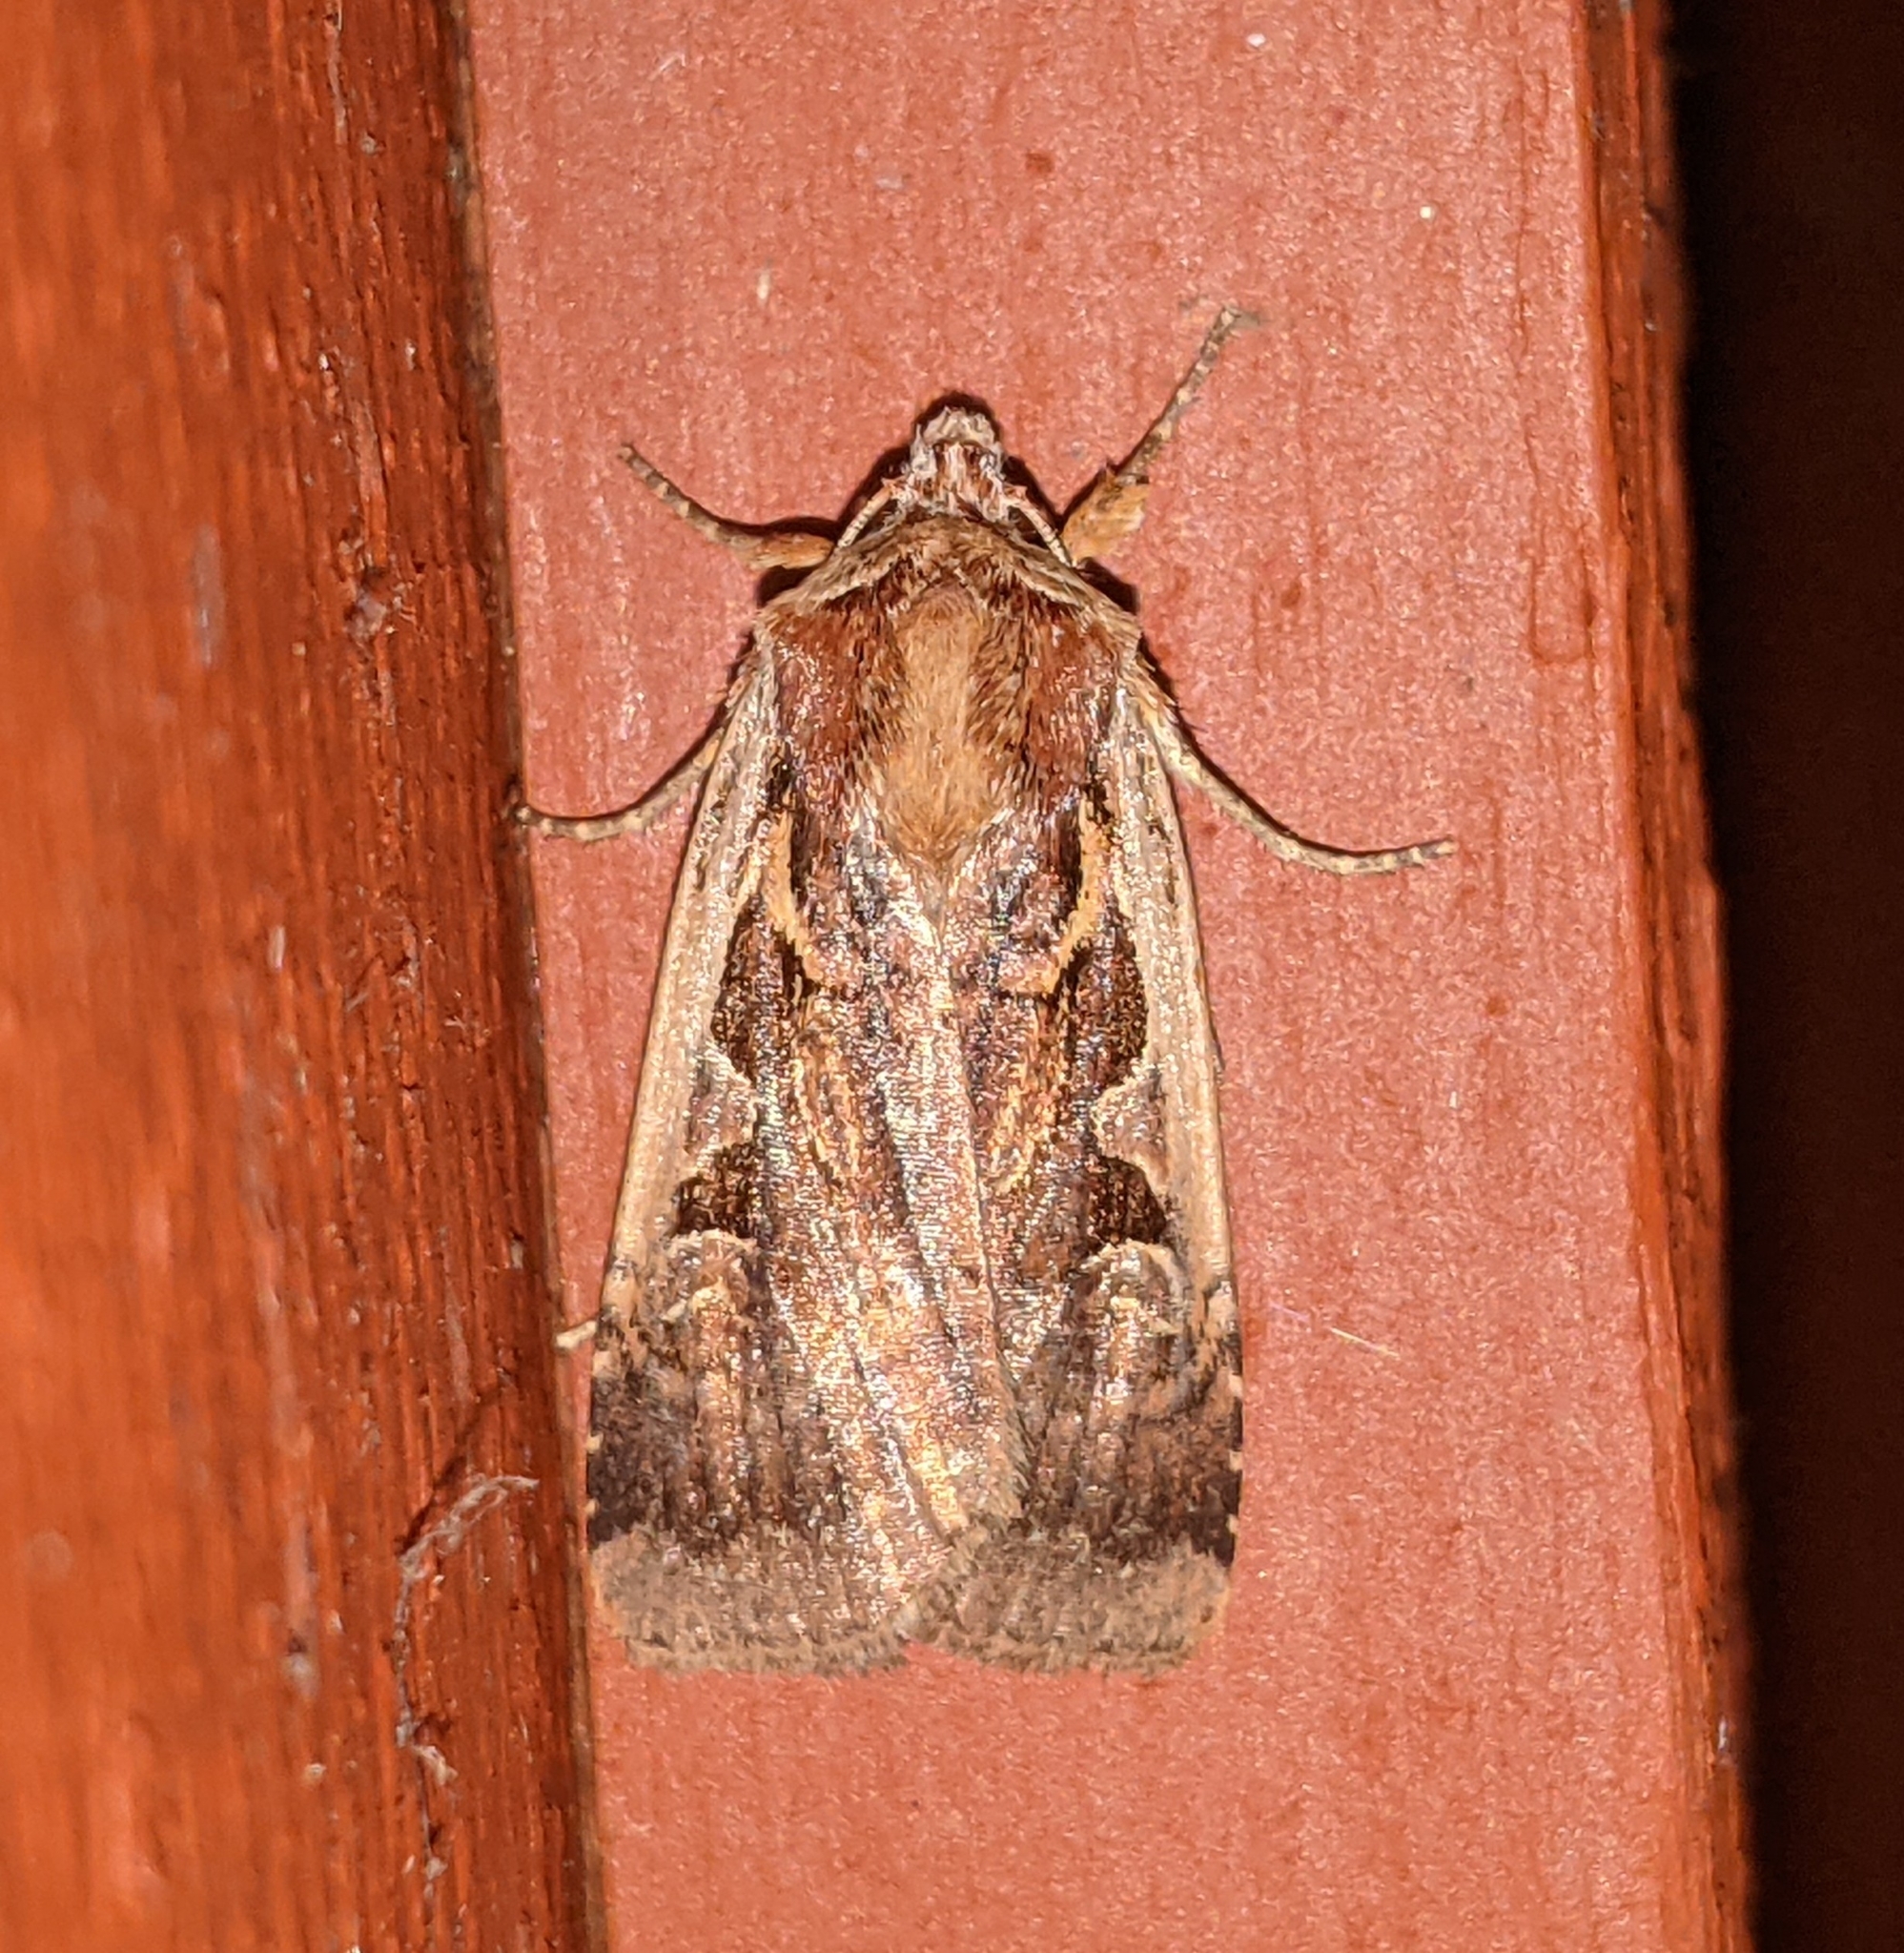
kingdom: Animalia
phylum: Arthropoda
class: Insecta
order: Lepidoptera
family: Noctuidae
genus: Xestia
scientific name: Xestia c-nigrum
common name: Setaceous hebrew character
